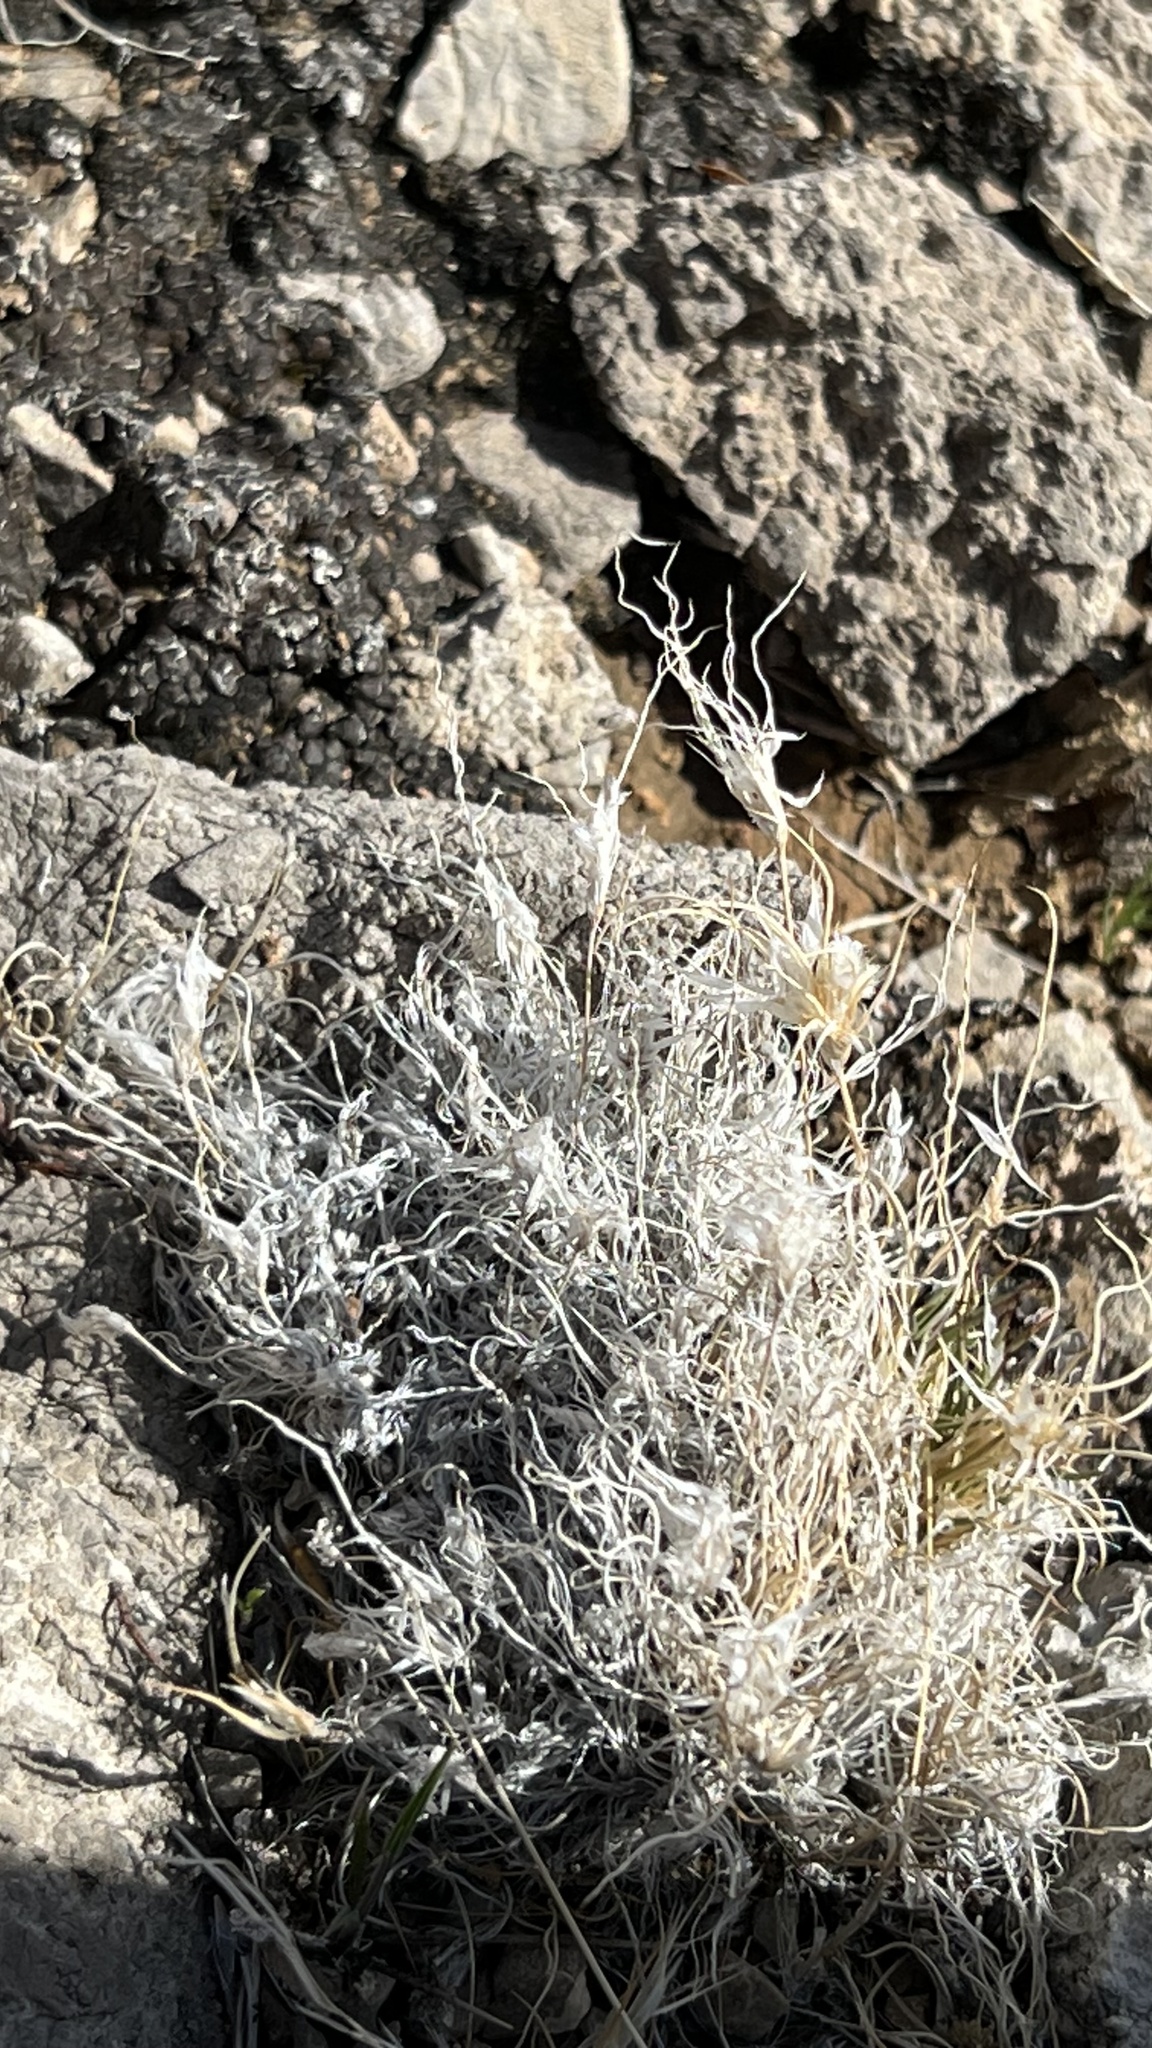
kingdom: Plantae
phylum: Tracheophyta
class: Liliopsida
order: Poales
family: Poaceae
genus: Dasyochloa
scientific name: Dasyochloa pulchella
